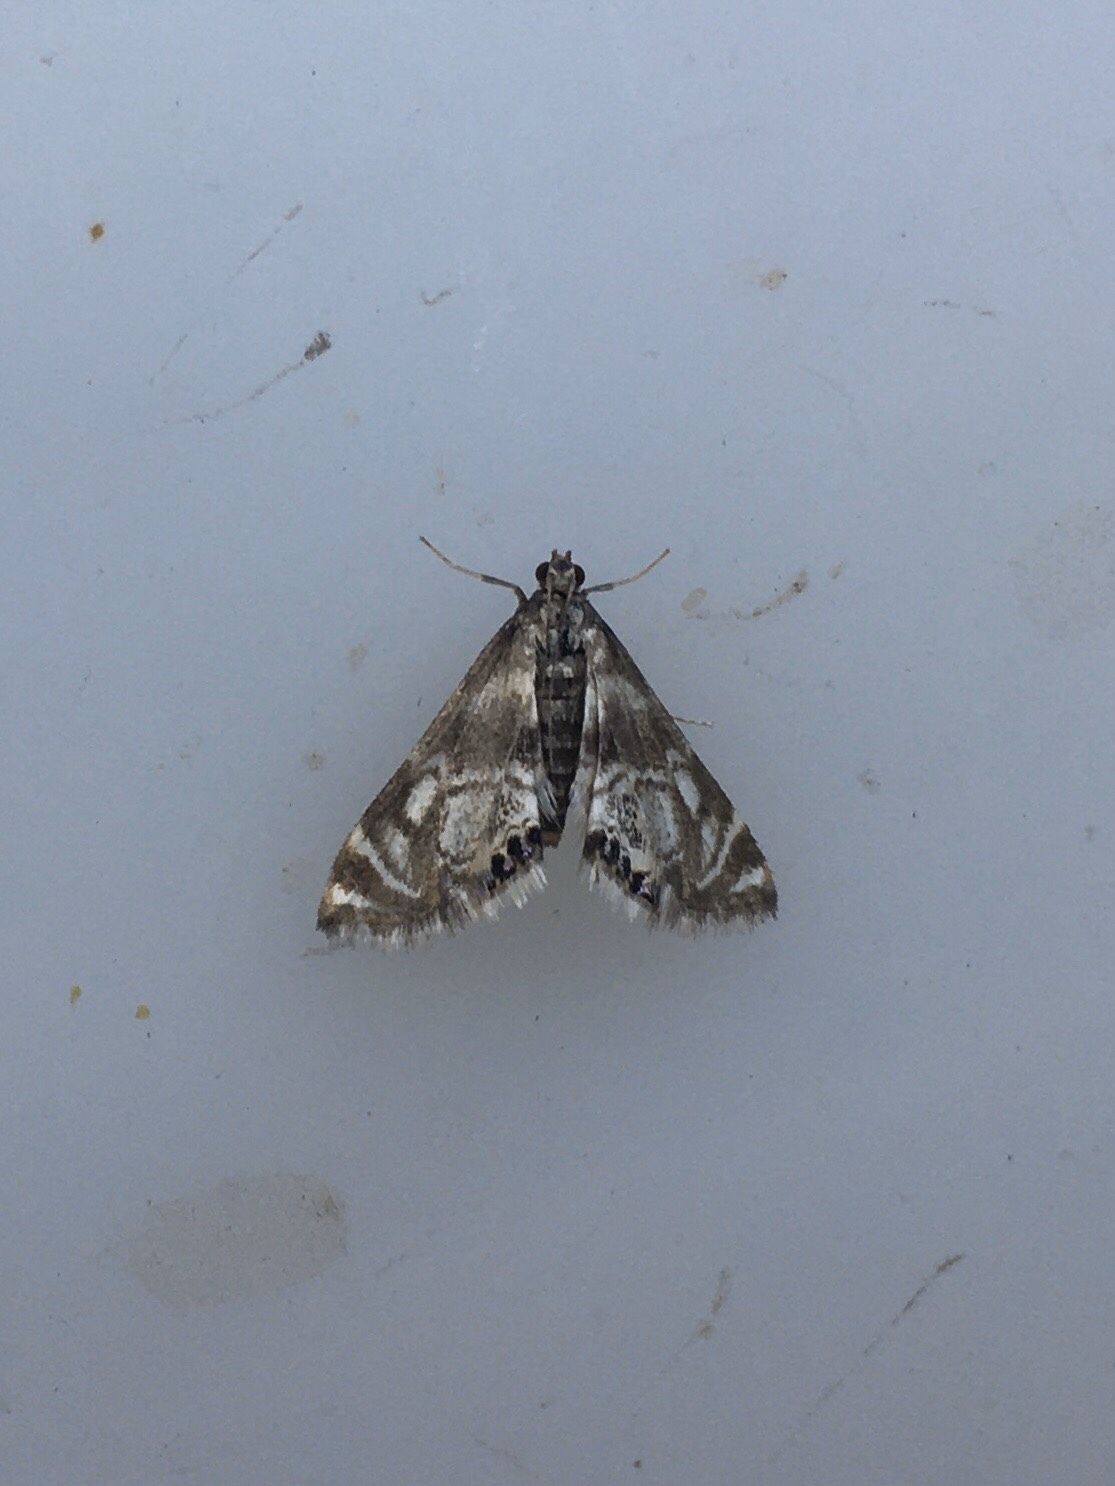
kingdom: Animalia
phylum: Arthropoda
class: Insecta
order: Lepidoptera
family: Crambidae
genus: Petrophila
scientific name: Petrophila canadensis
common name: Canadian petrophila
